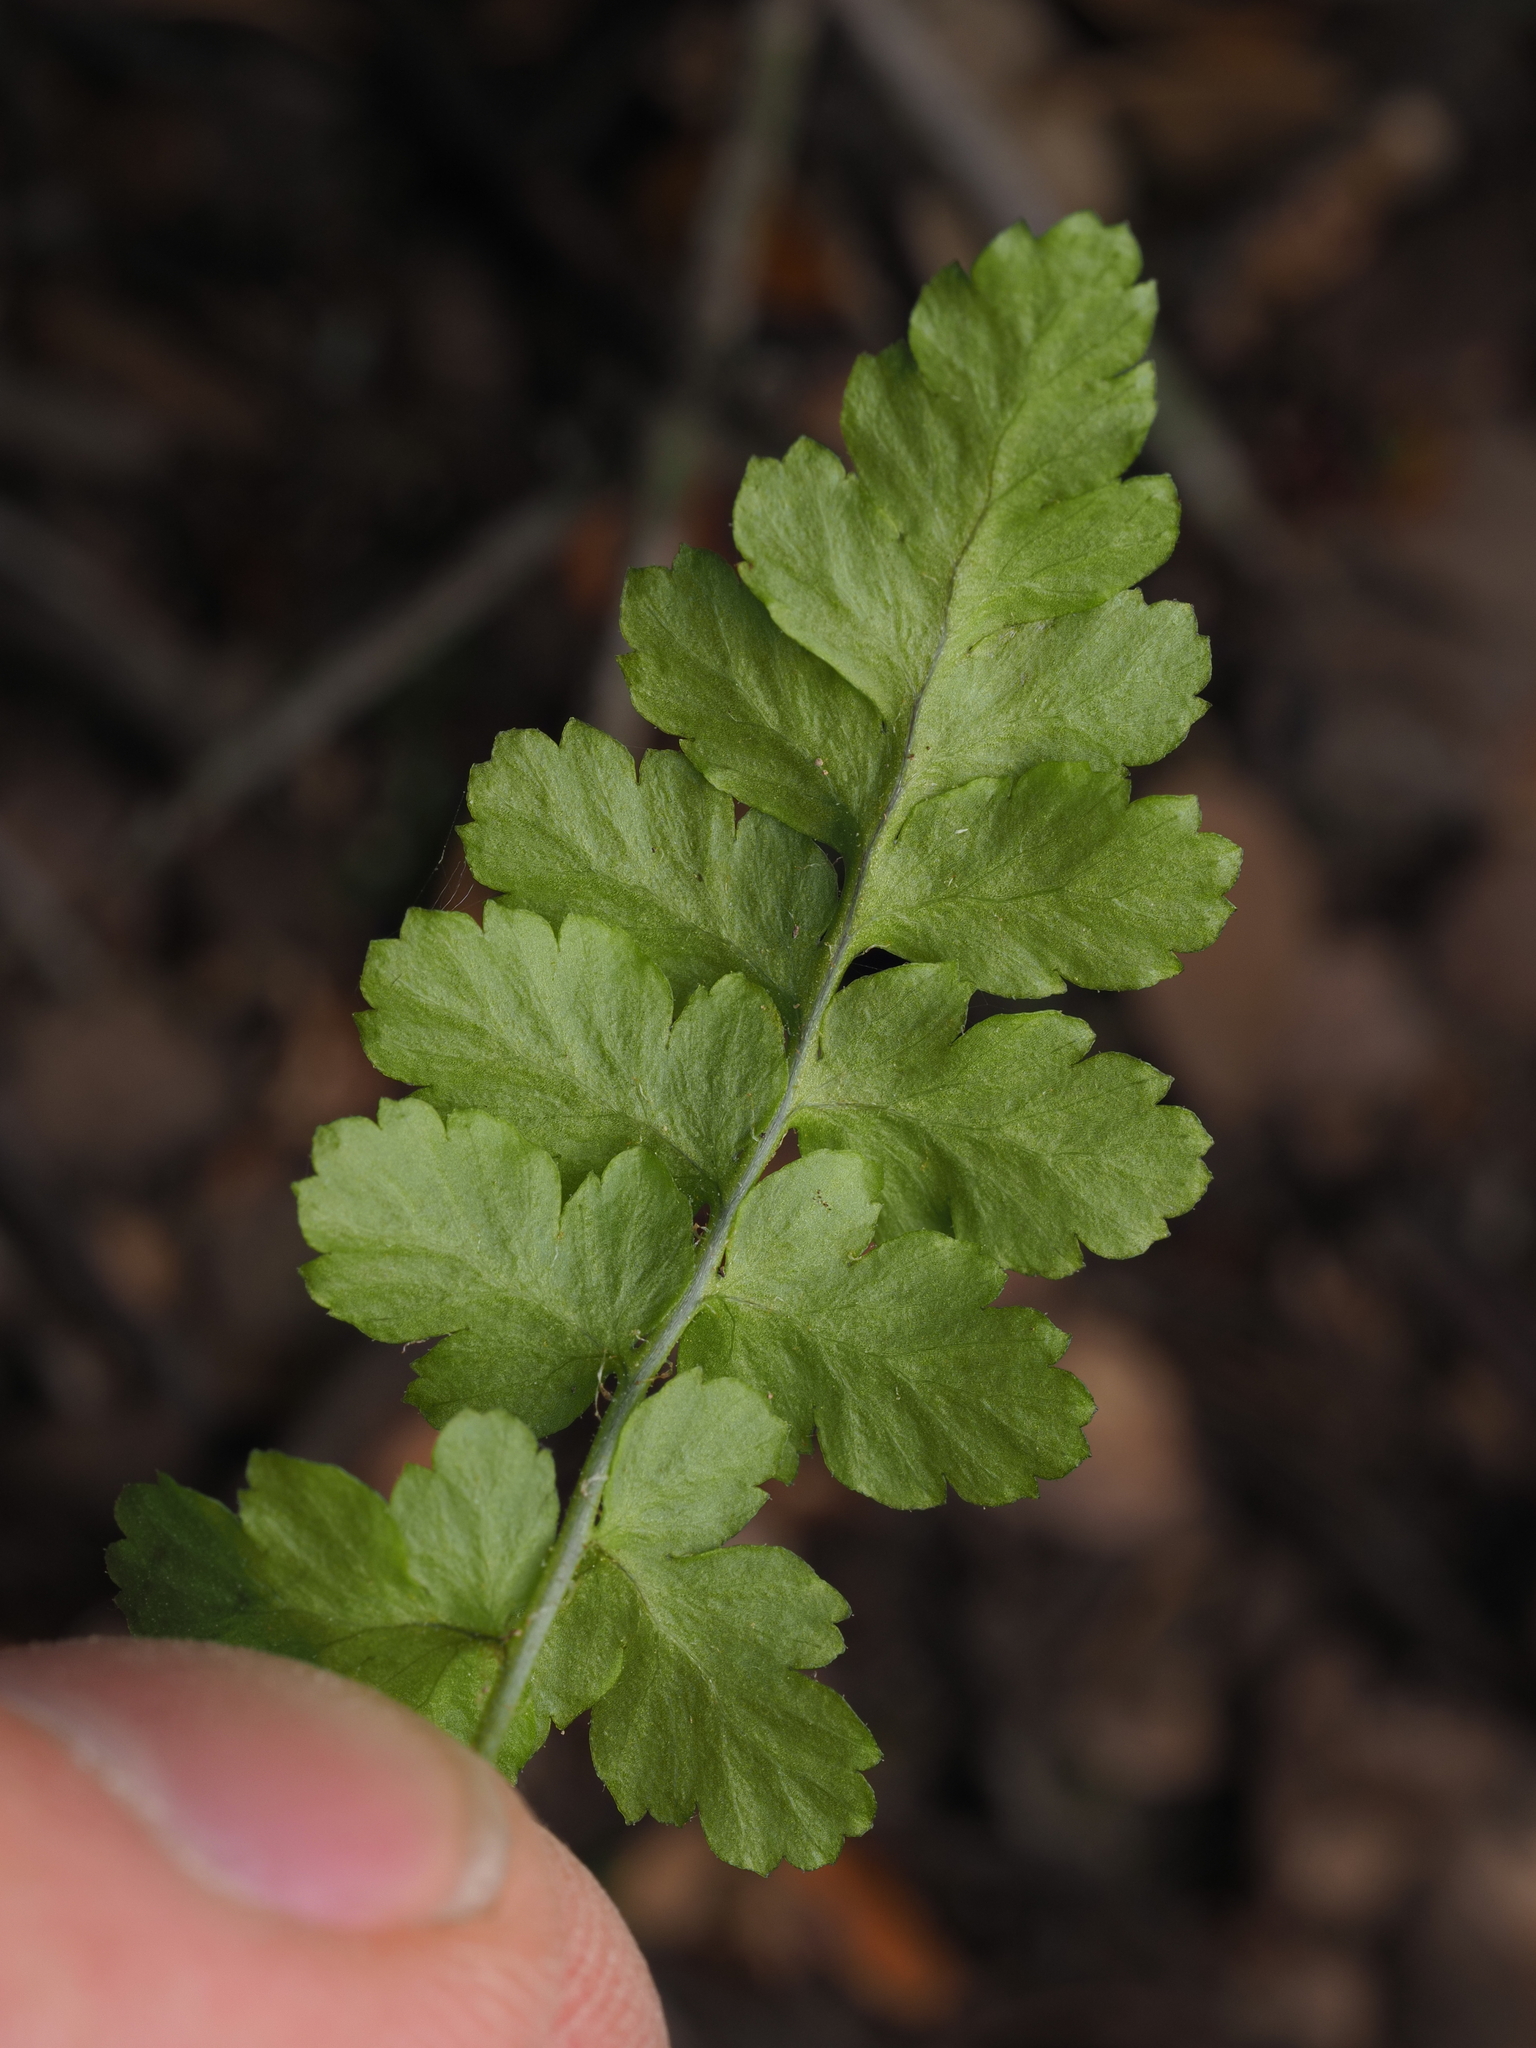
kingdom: Plantae
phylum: Tracheophyta
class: Polypodiopsida
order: Polypodiales
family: Dryopteridaceae
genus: Dryopteris
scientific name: Dryopteris filix-mas
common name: Male fern
